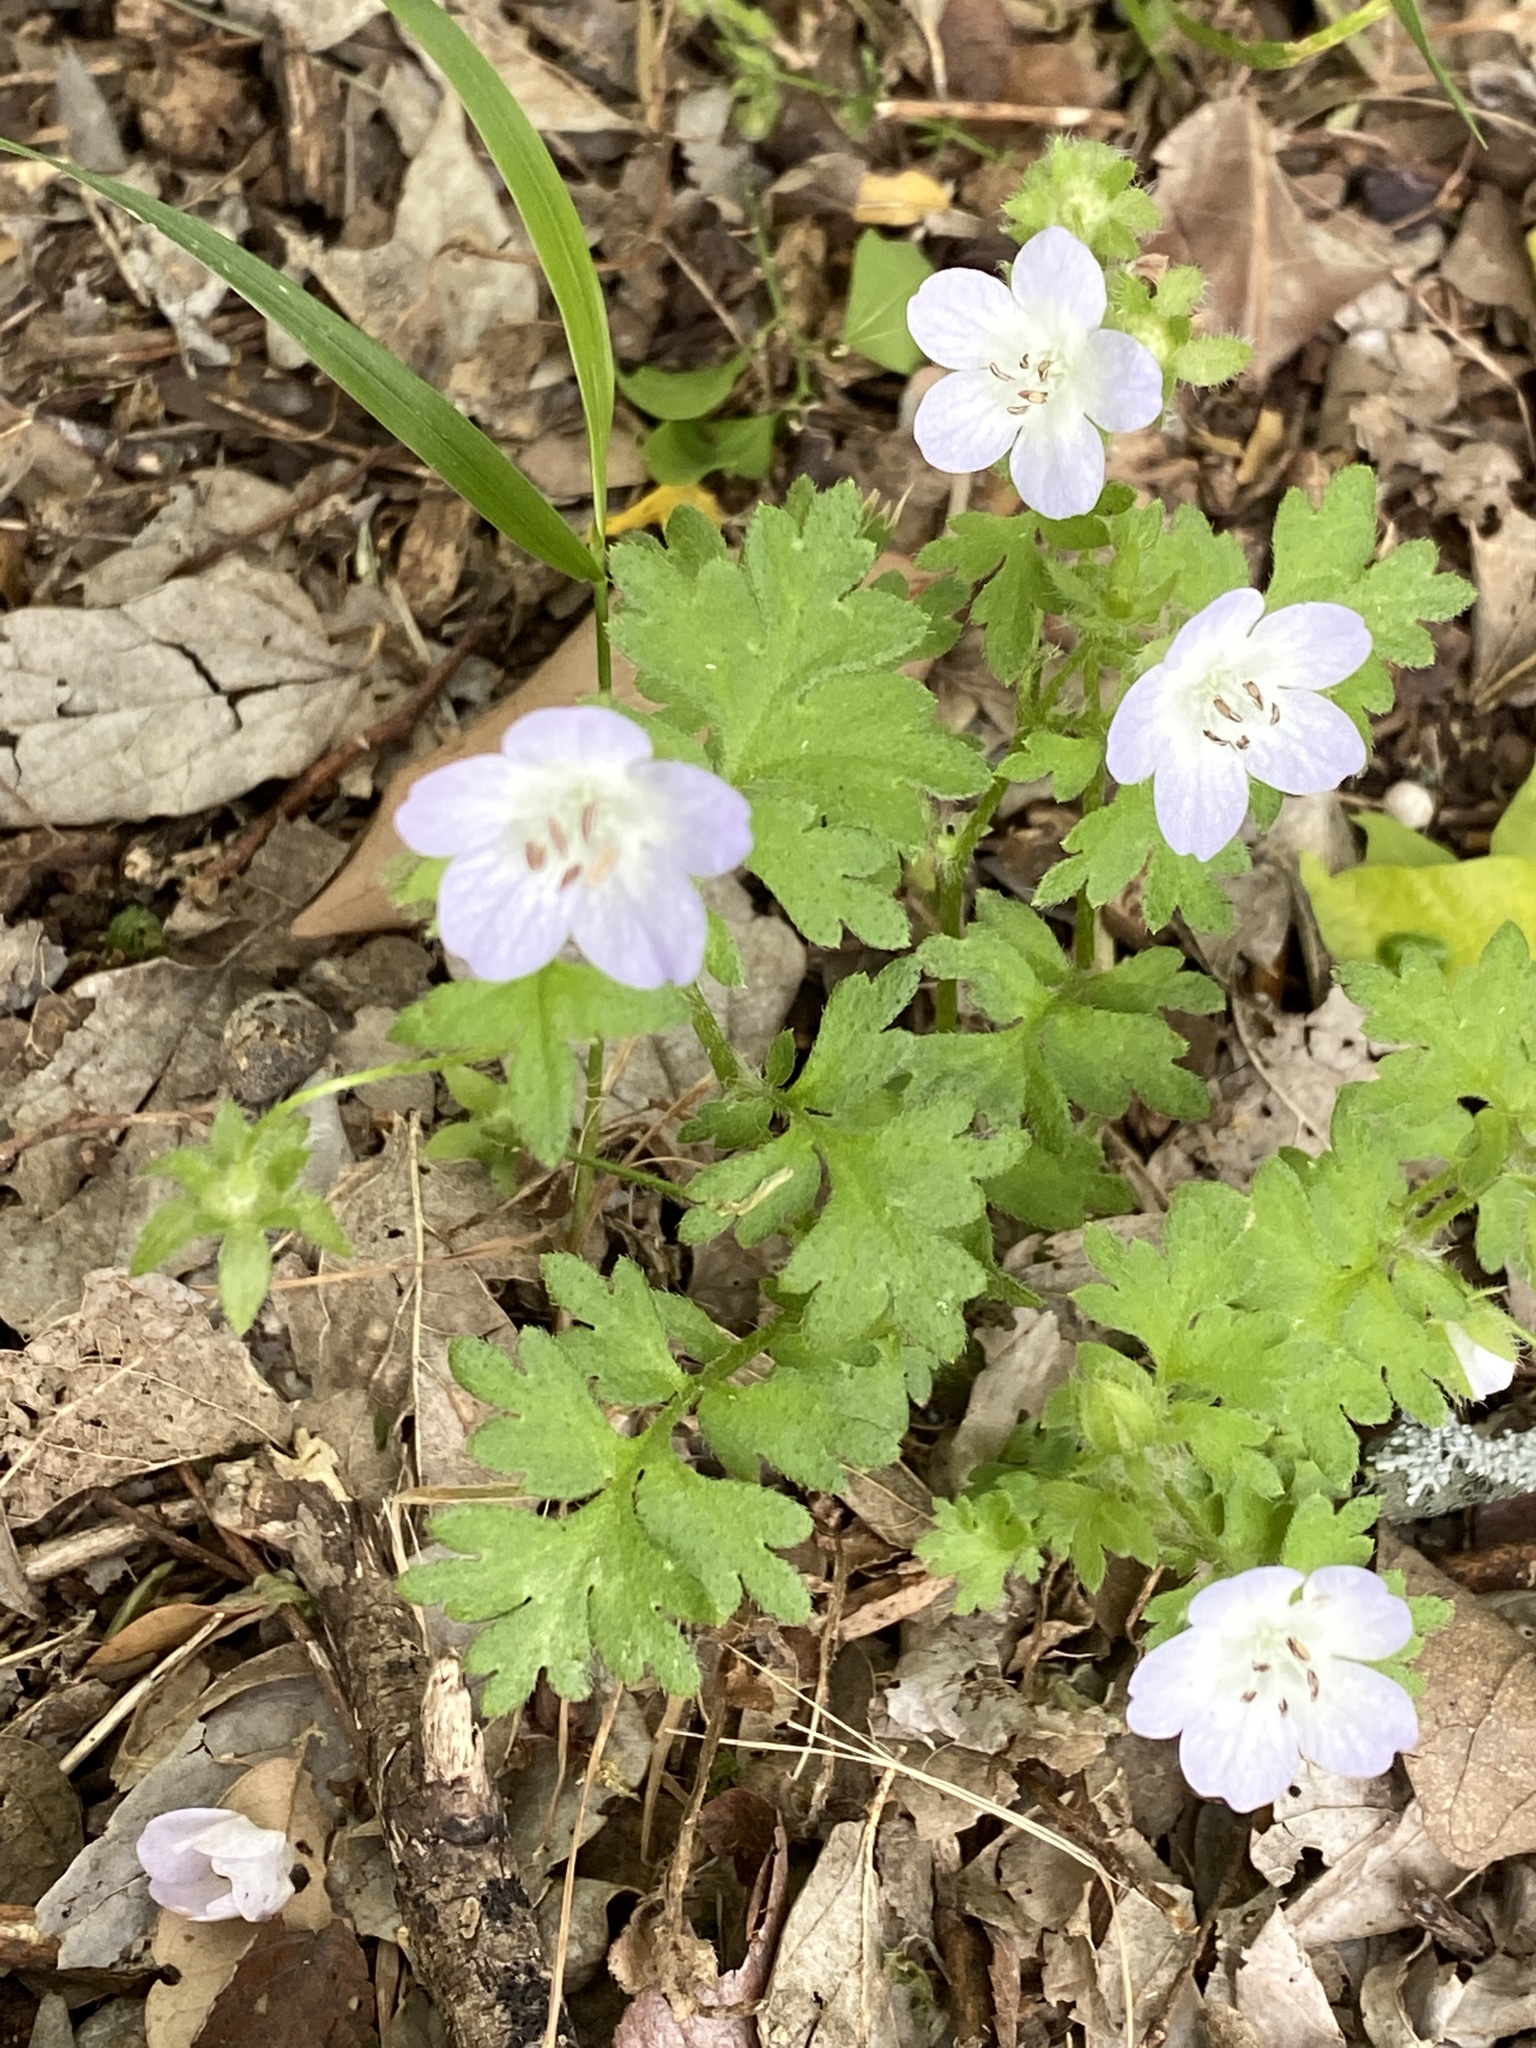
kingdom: Plantae
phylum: Tracheophyta
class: Magnoliopsida
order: Boraginales
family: Hydrophyllaceae
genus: Nemophila
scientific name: Nemophila phacelioides
